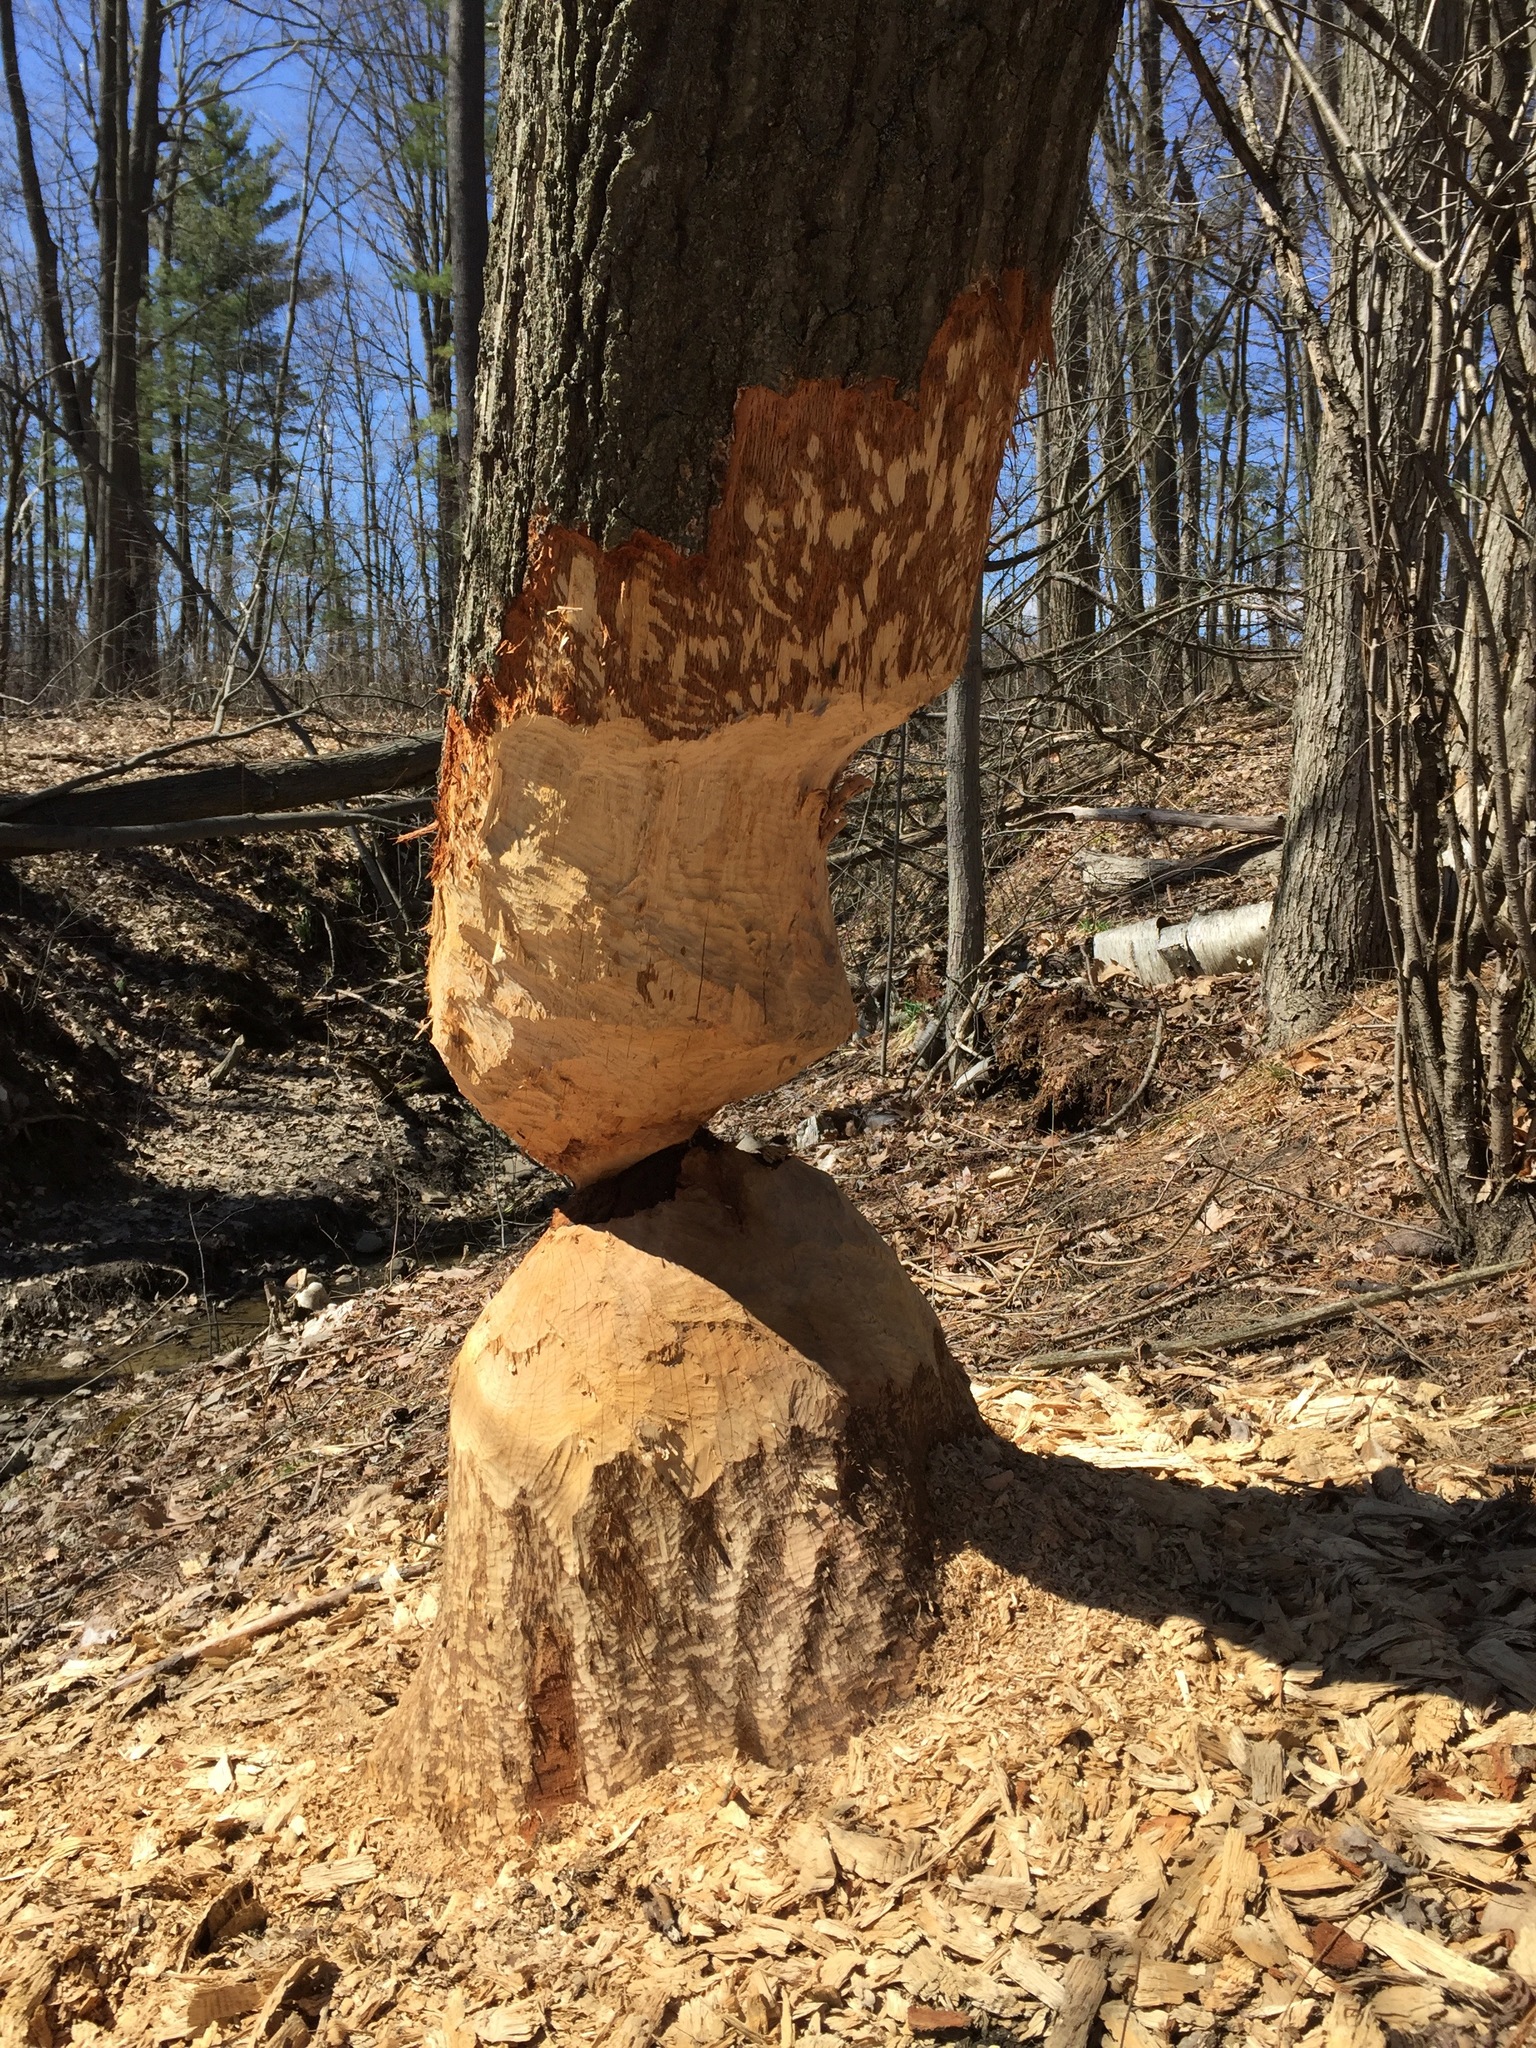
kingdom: Animalia
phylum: Chordata
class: Mammalia
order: Rodentia
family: Castoridae
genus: Castor
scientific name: Castor canadensis
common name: American beaver
